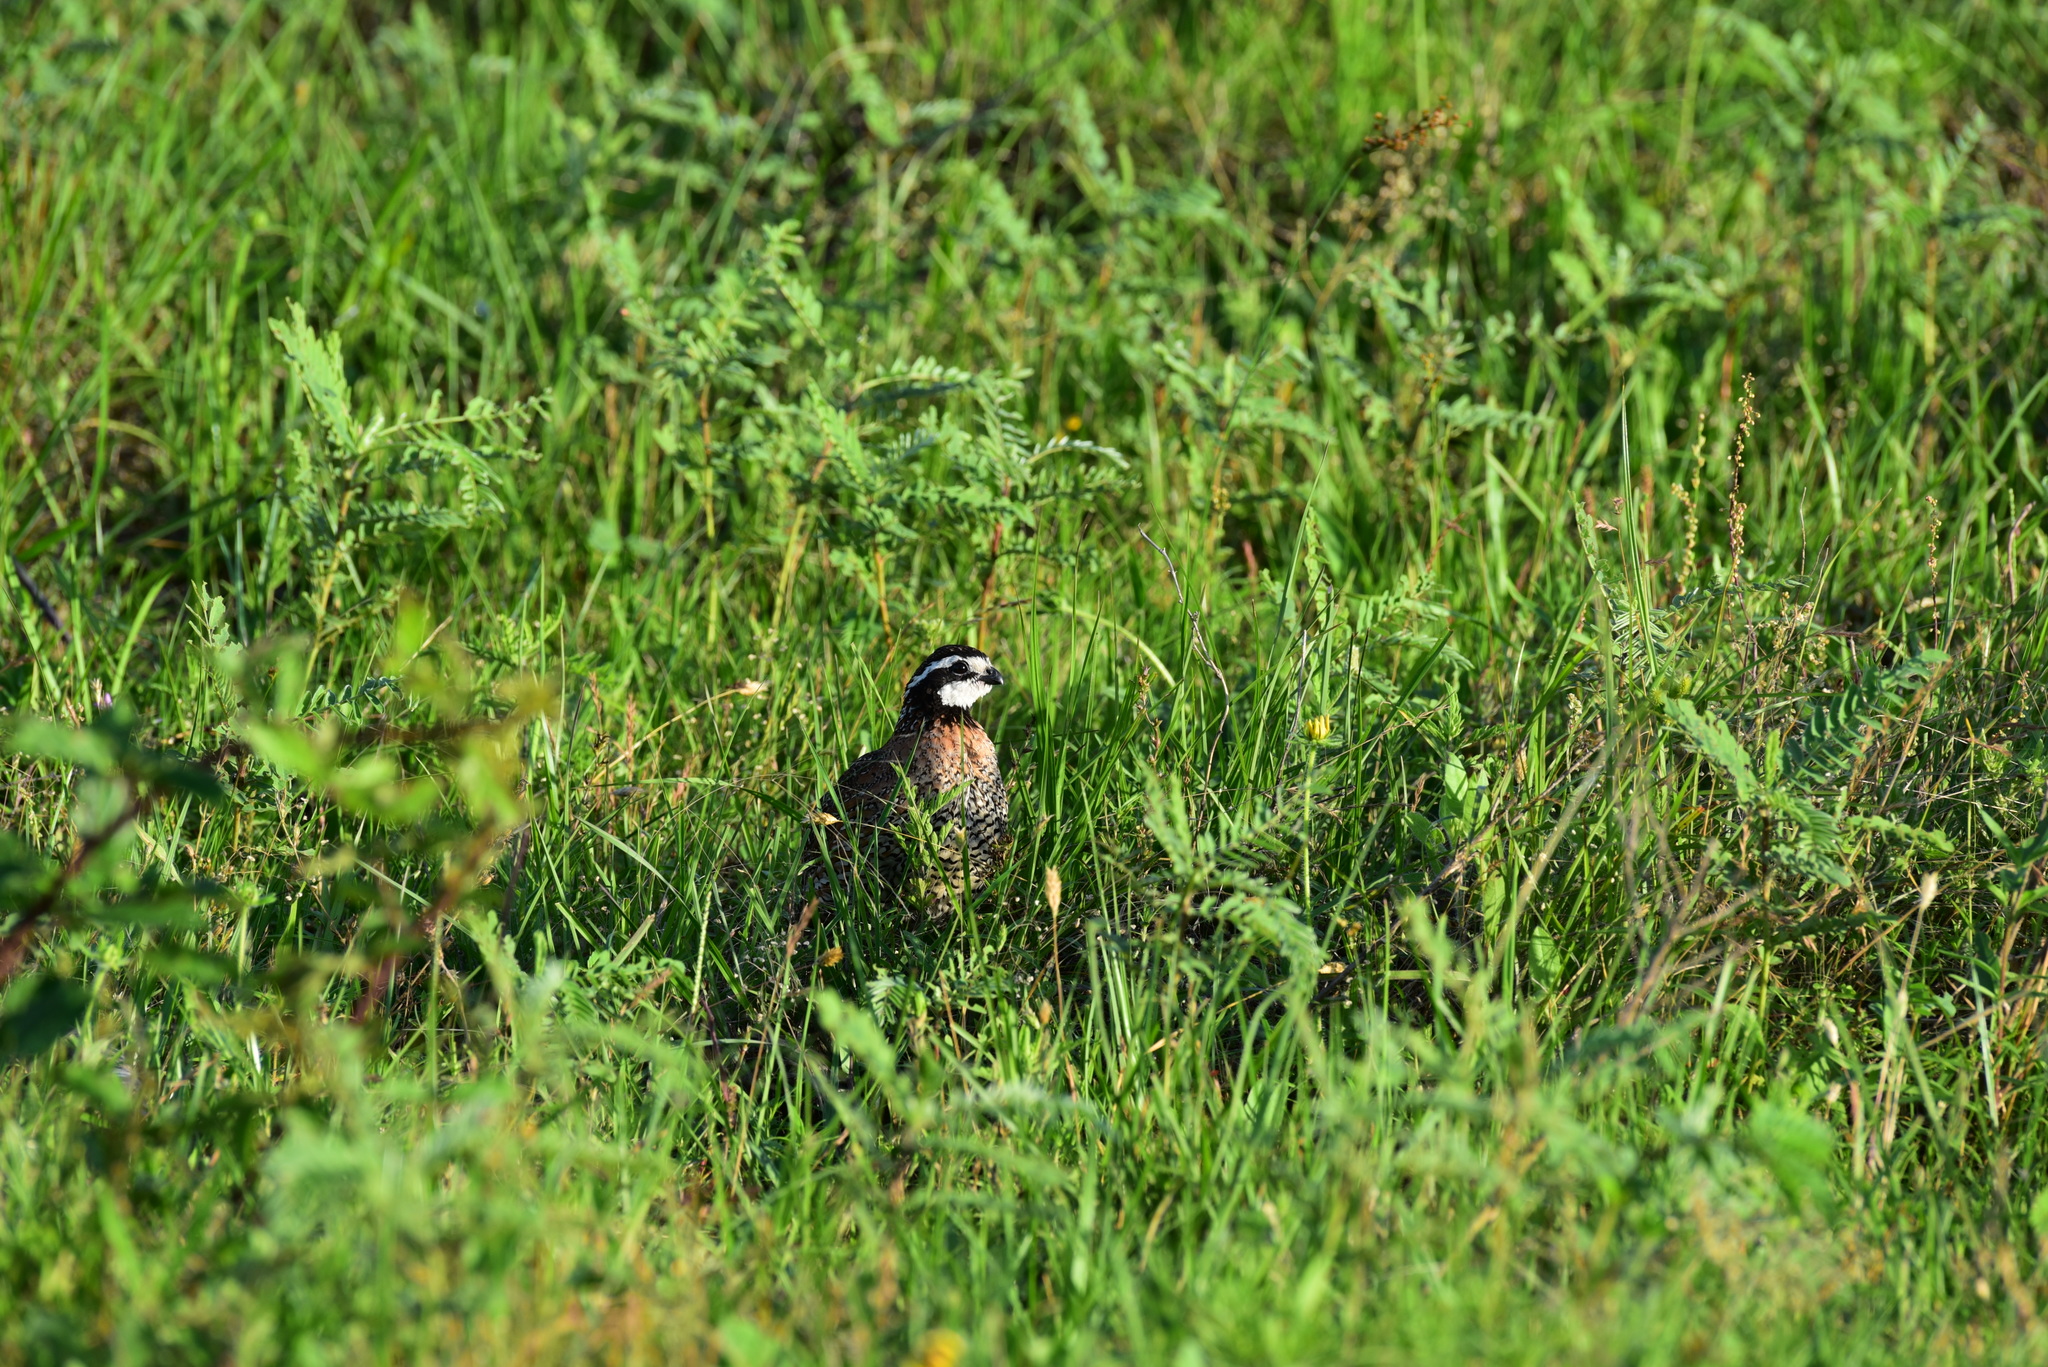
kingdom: Animalia
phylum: Chordata
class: Aves
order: Galliformes
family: Odontophoridae
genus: Colinus
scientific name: Colinus virginianus
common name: Northern bobwhite
